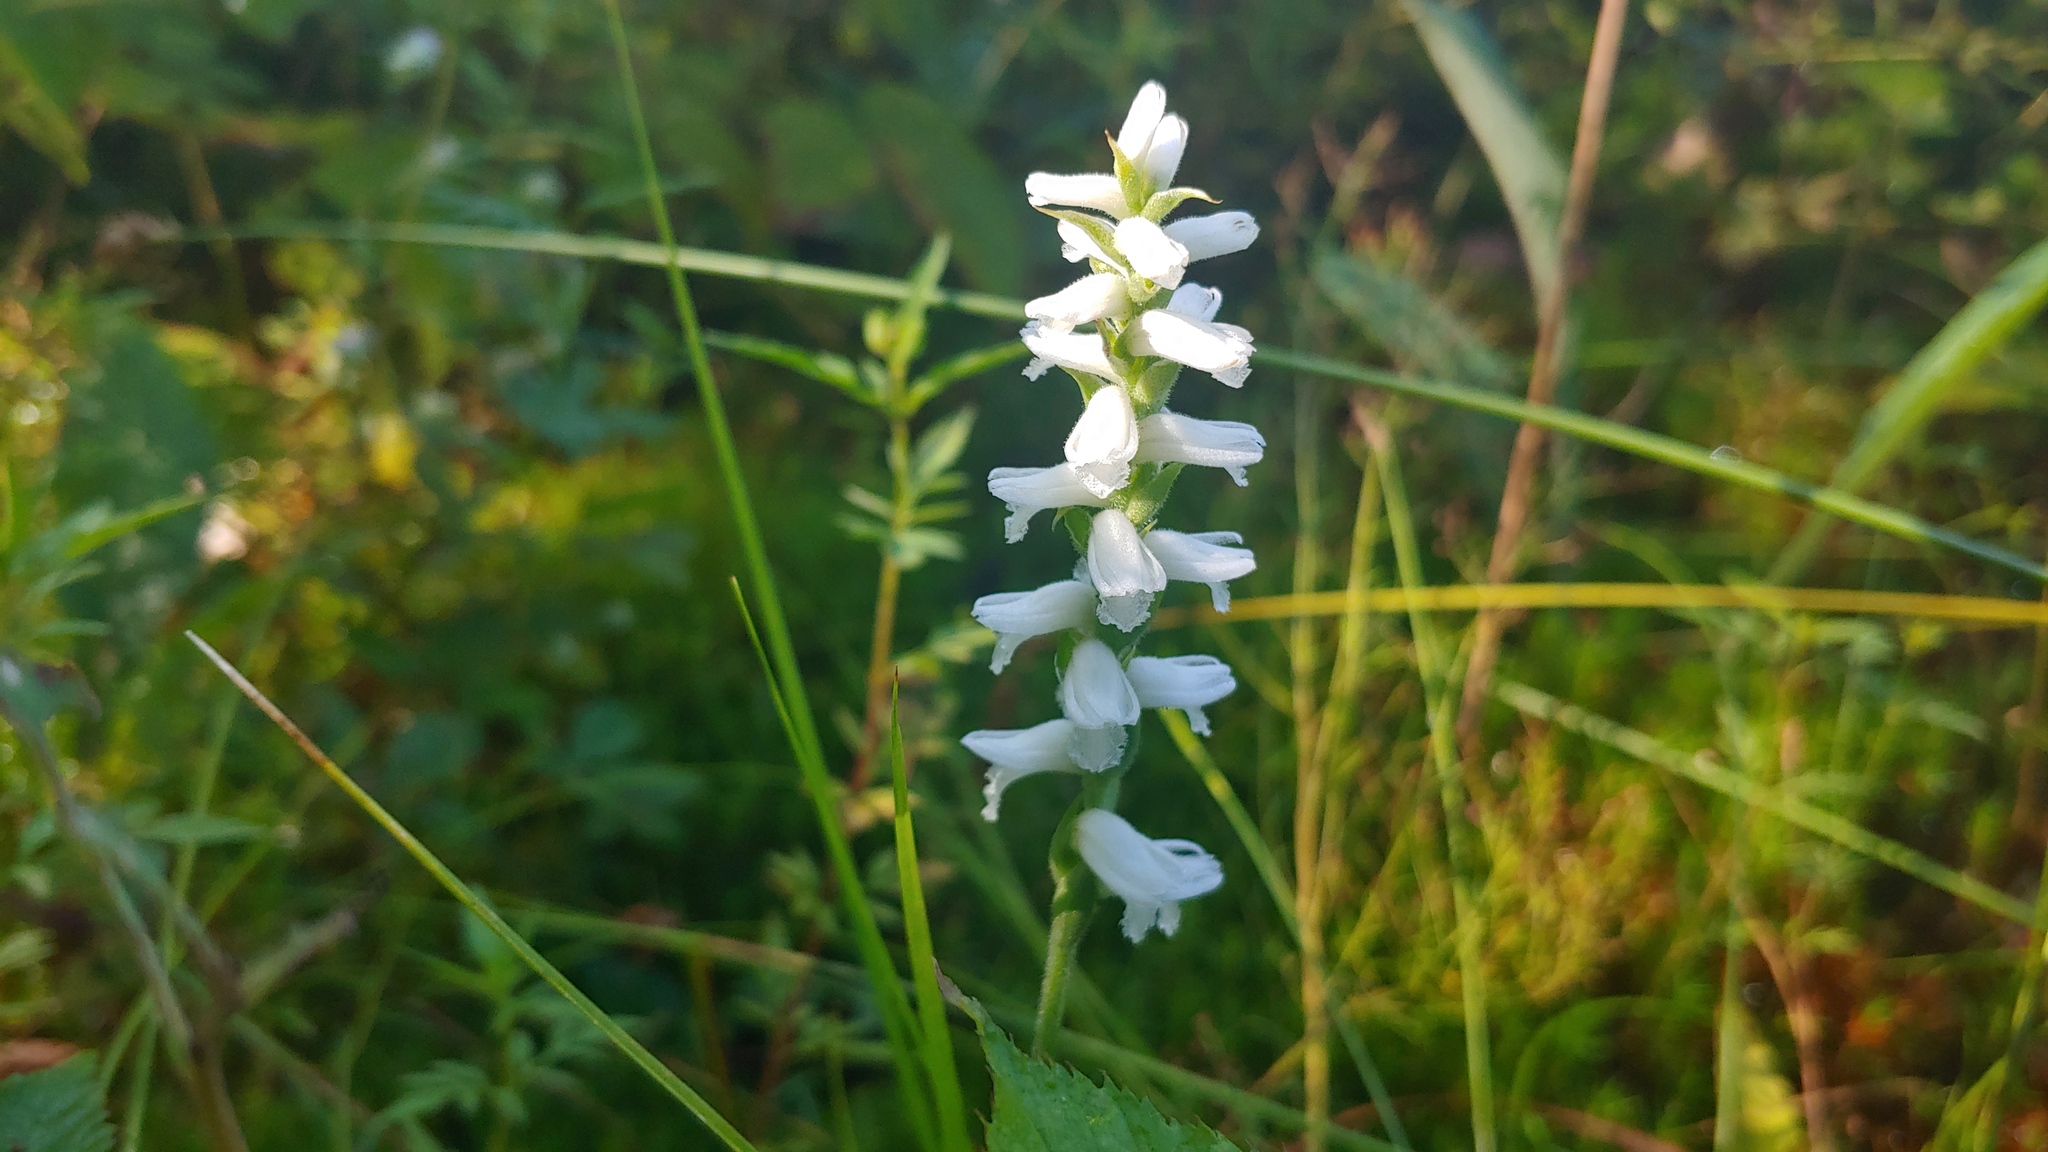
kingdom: Plantae
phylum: Tracheophyta
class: Liliopsida
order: Asparagales
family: Orchidaceae
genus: Spiranthes
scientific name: Spiranthes incurva
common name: Sphinx ladies'-tresses
